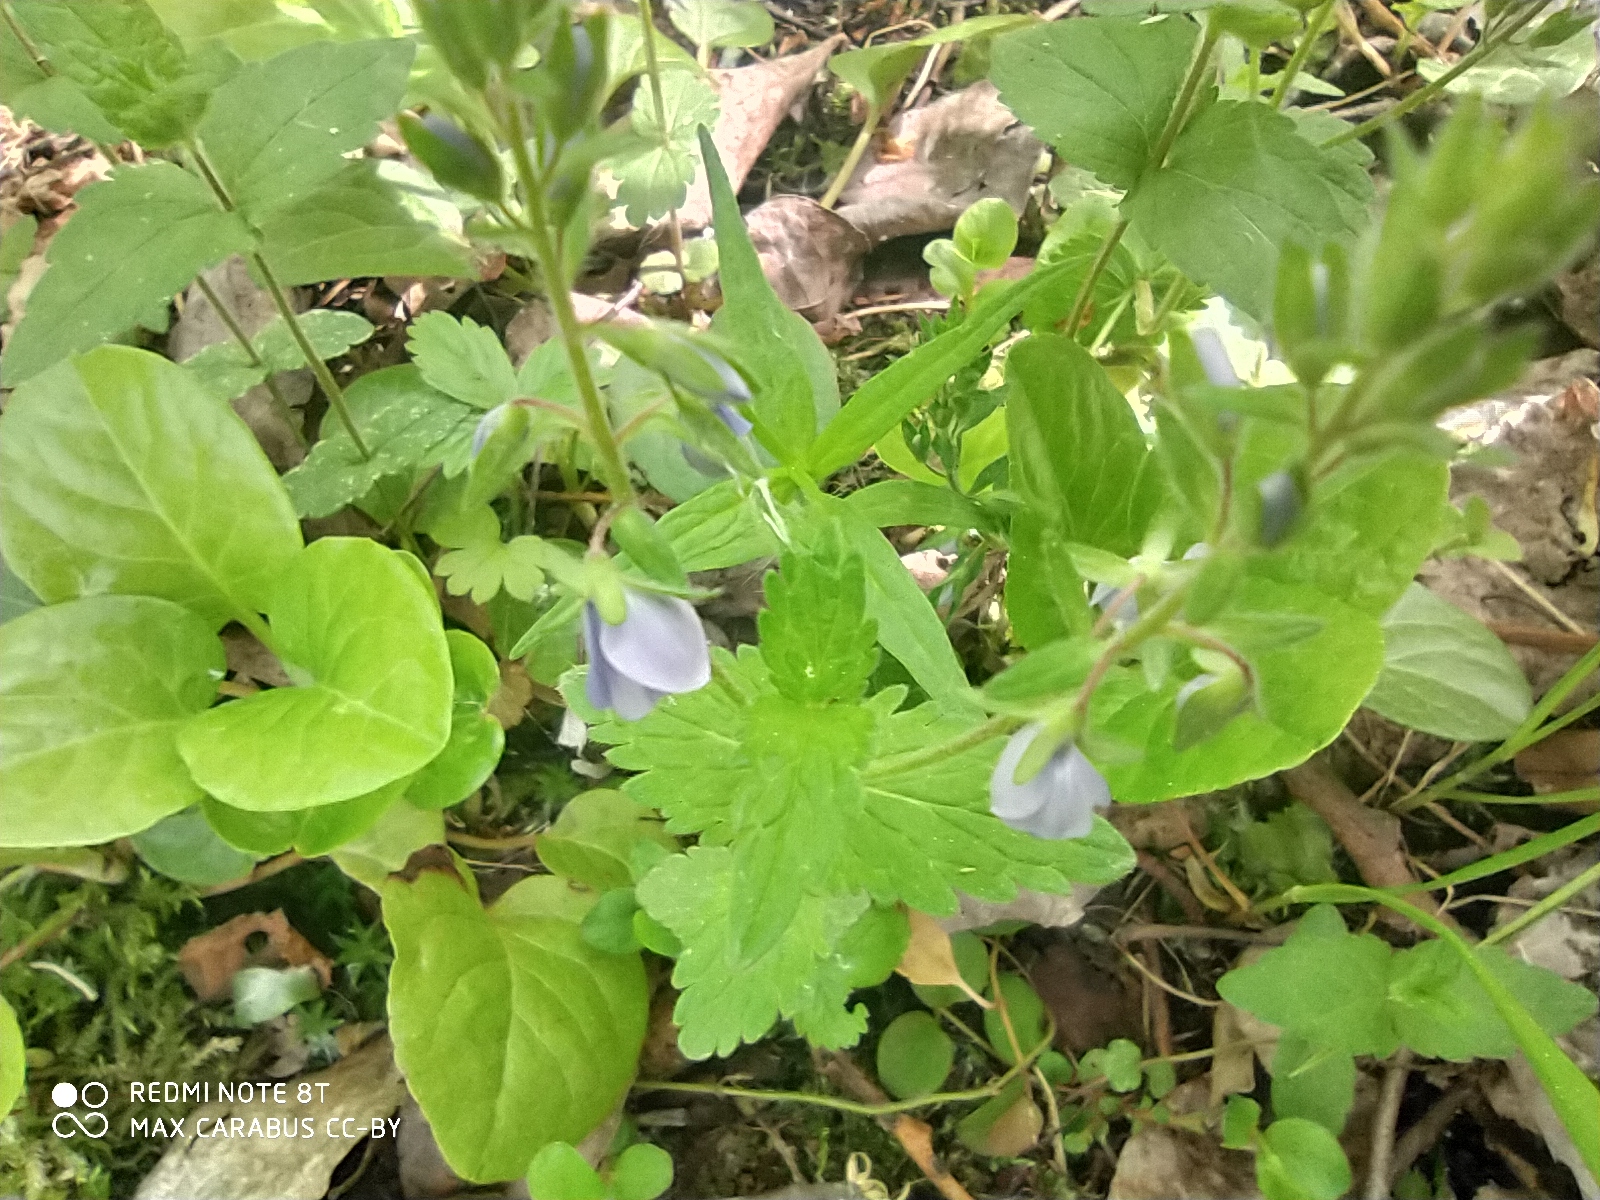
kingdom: Plantae
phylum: Tracheophyta
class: Magnoliopsida
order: Lamiales
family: Plantaginaceae
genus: Veronica
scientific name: Veronica chamaedrys
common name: Germander speedwell
